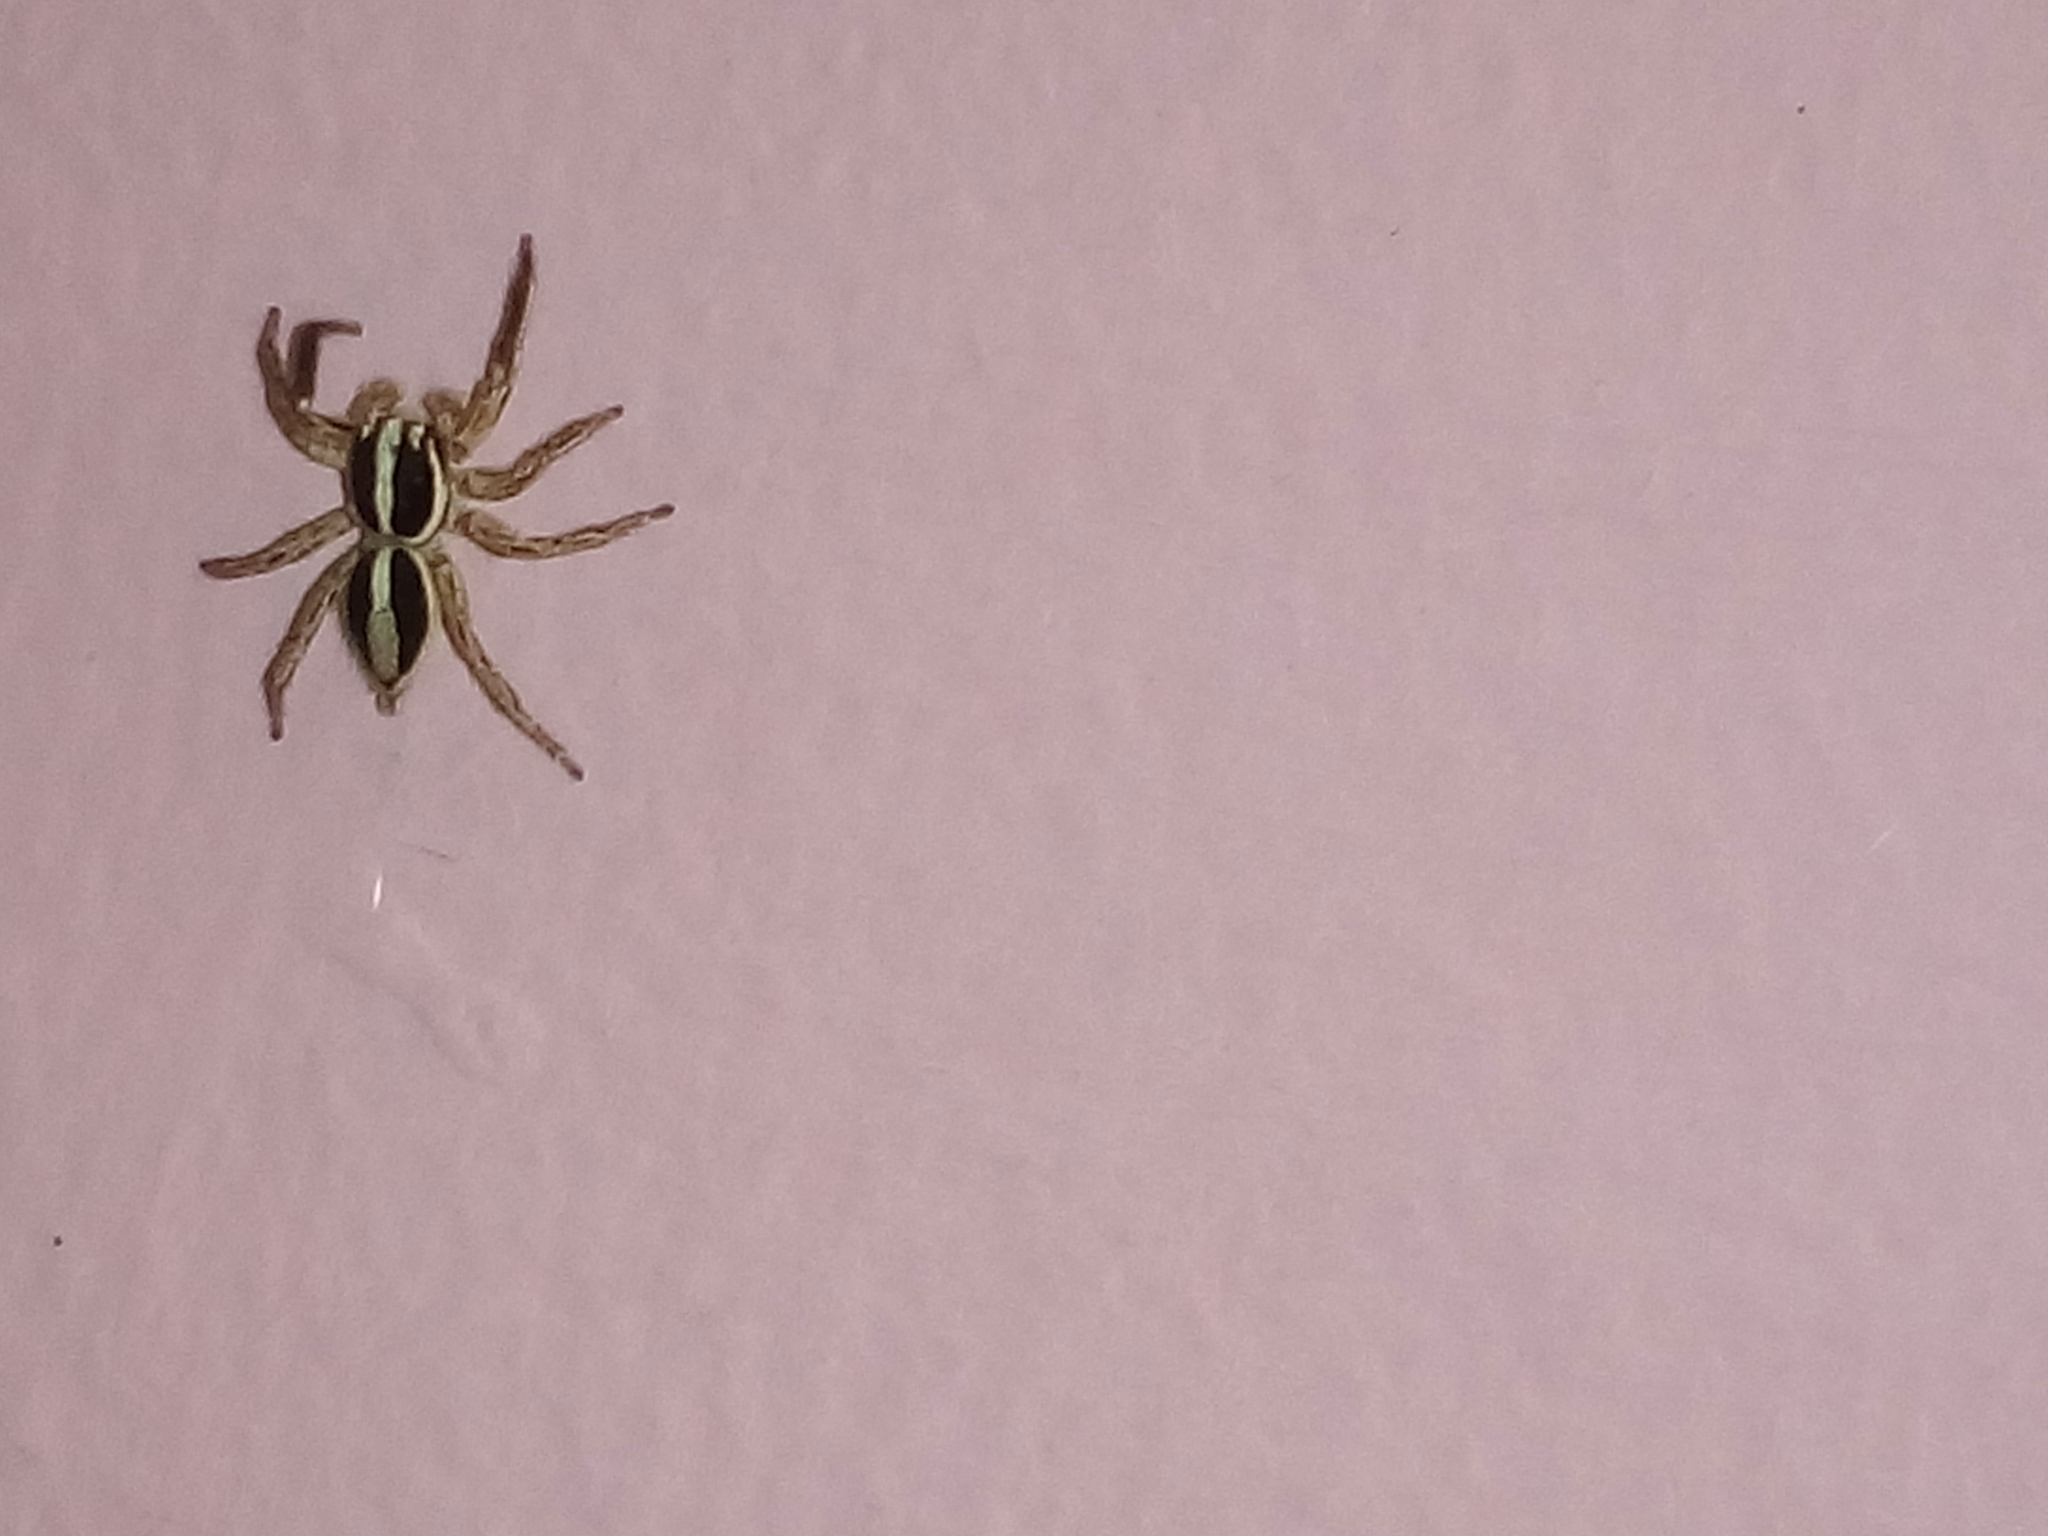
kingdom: Animalia
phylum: Arthropoda
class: Arachnida
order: Araneae
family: Salticidae
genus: Plexippus
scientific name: Plexippus paykulli
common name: Pantropical jumper
